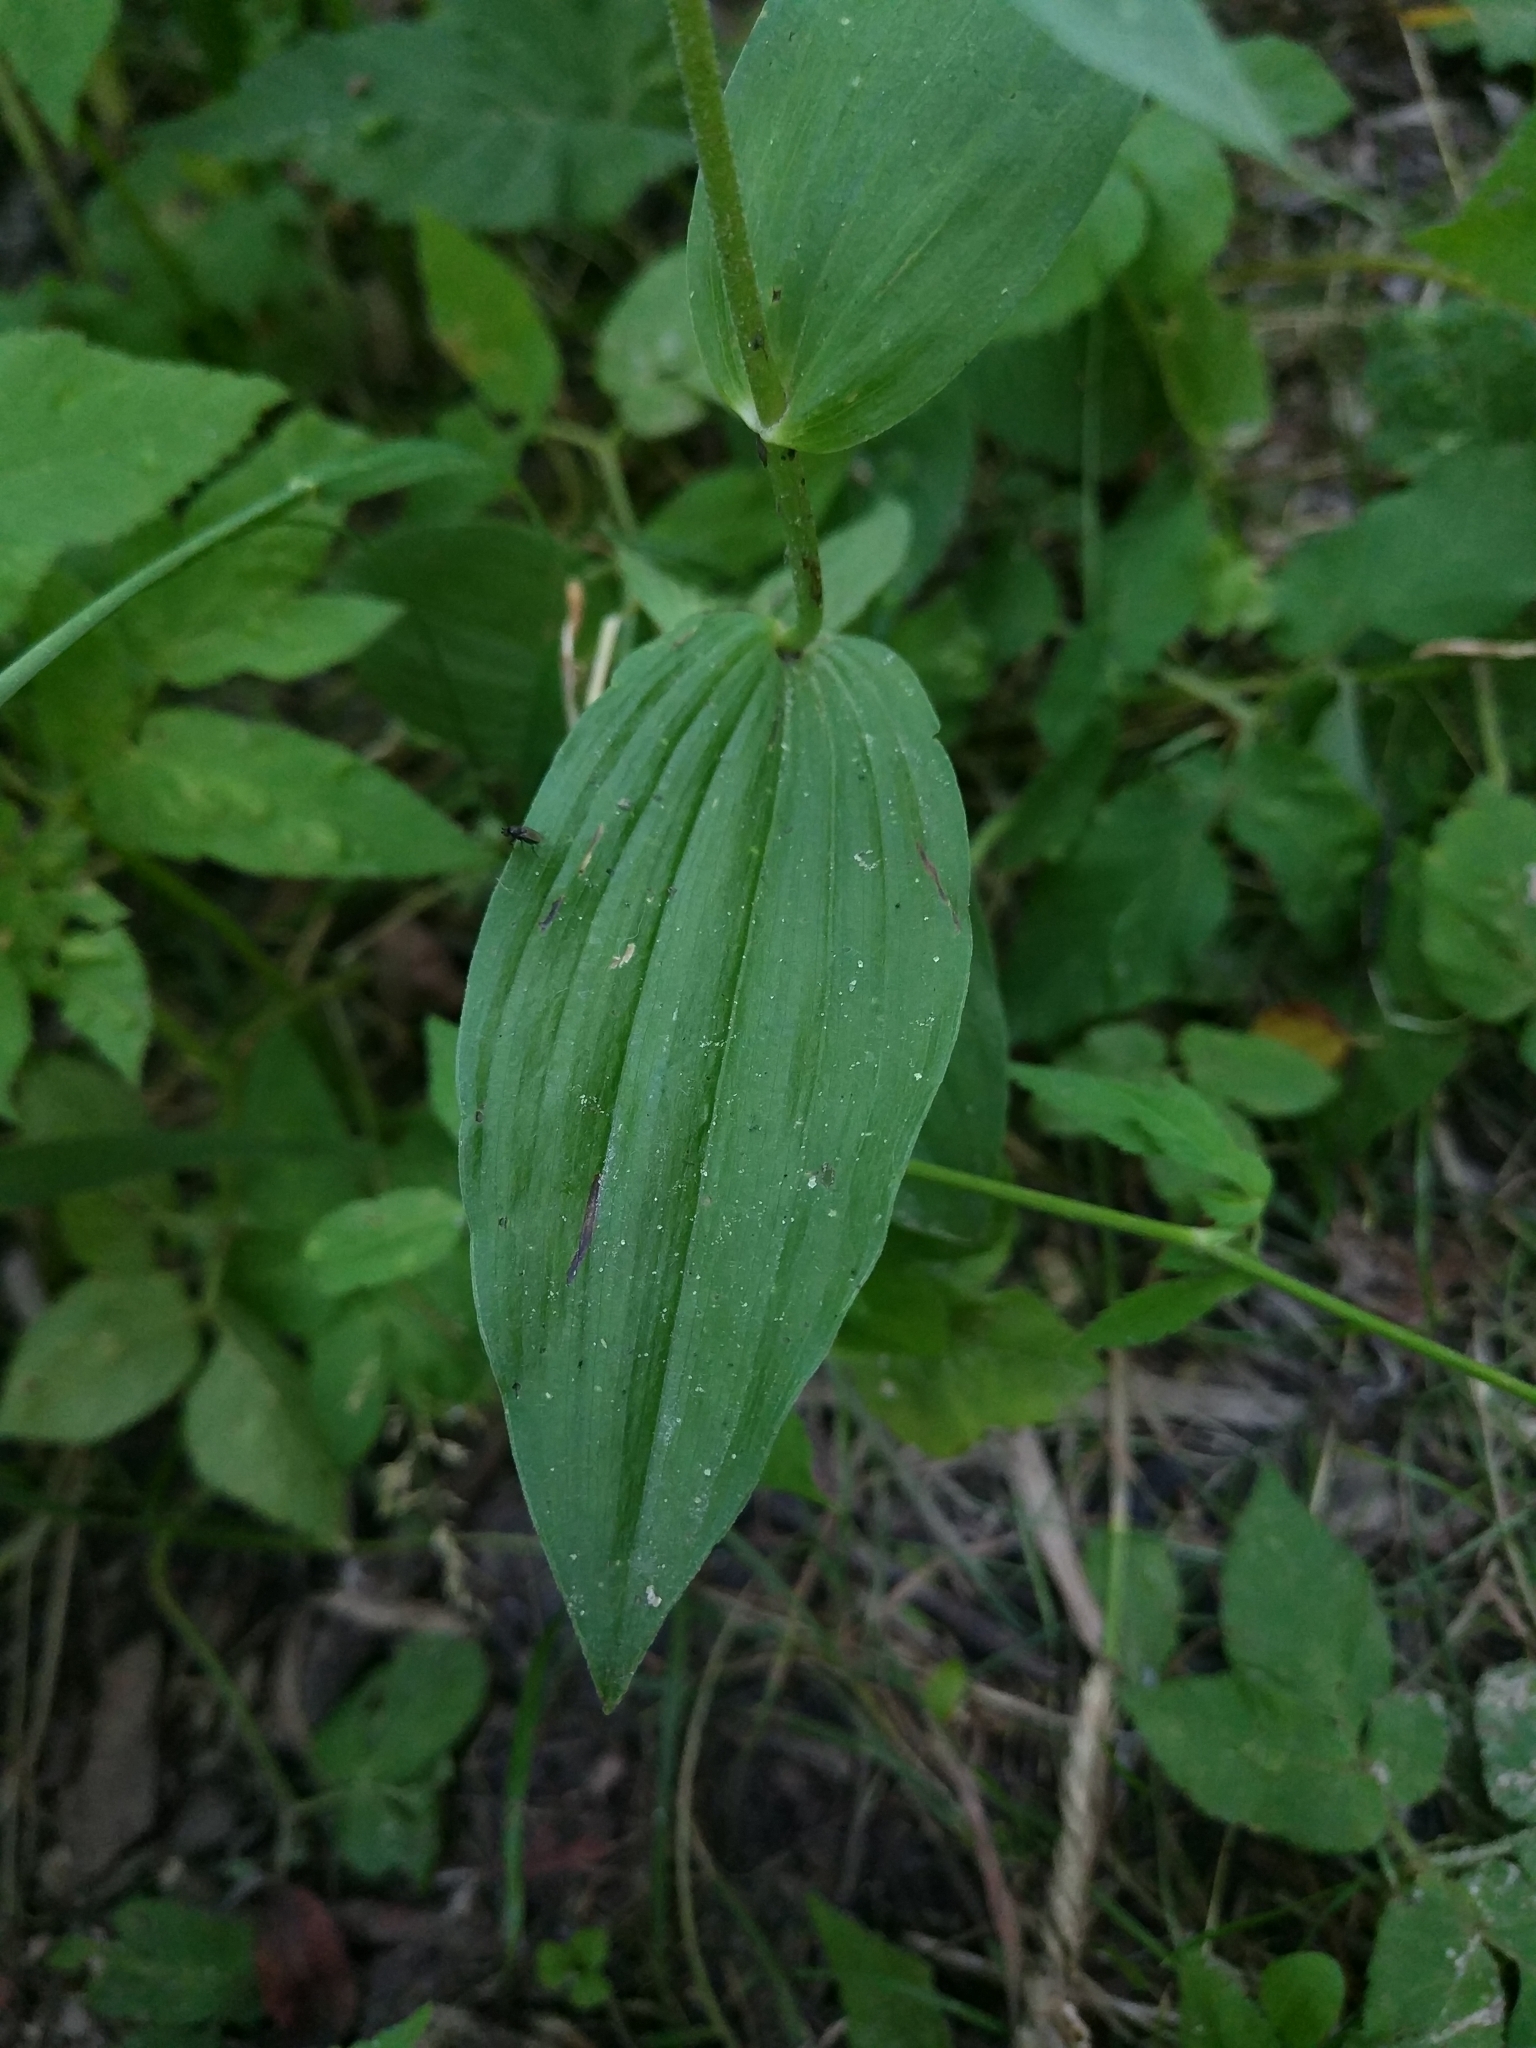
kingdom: Plantae
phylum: Tracheophyta
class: Liliopsida
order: Asparagales
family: Orchidaceae
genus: Epipactis
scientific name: Epipactis helleborine
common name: Broad-leaved helleborine
